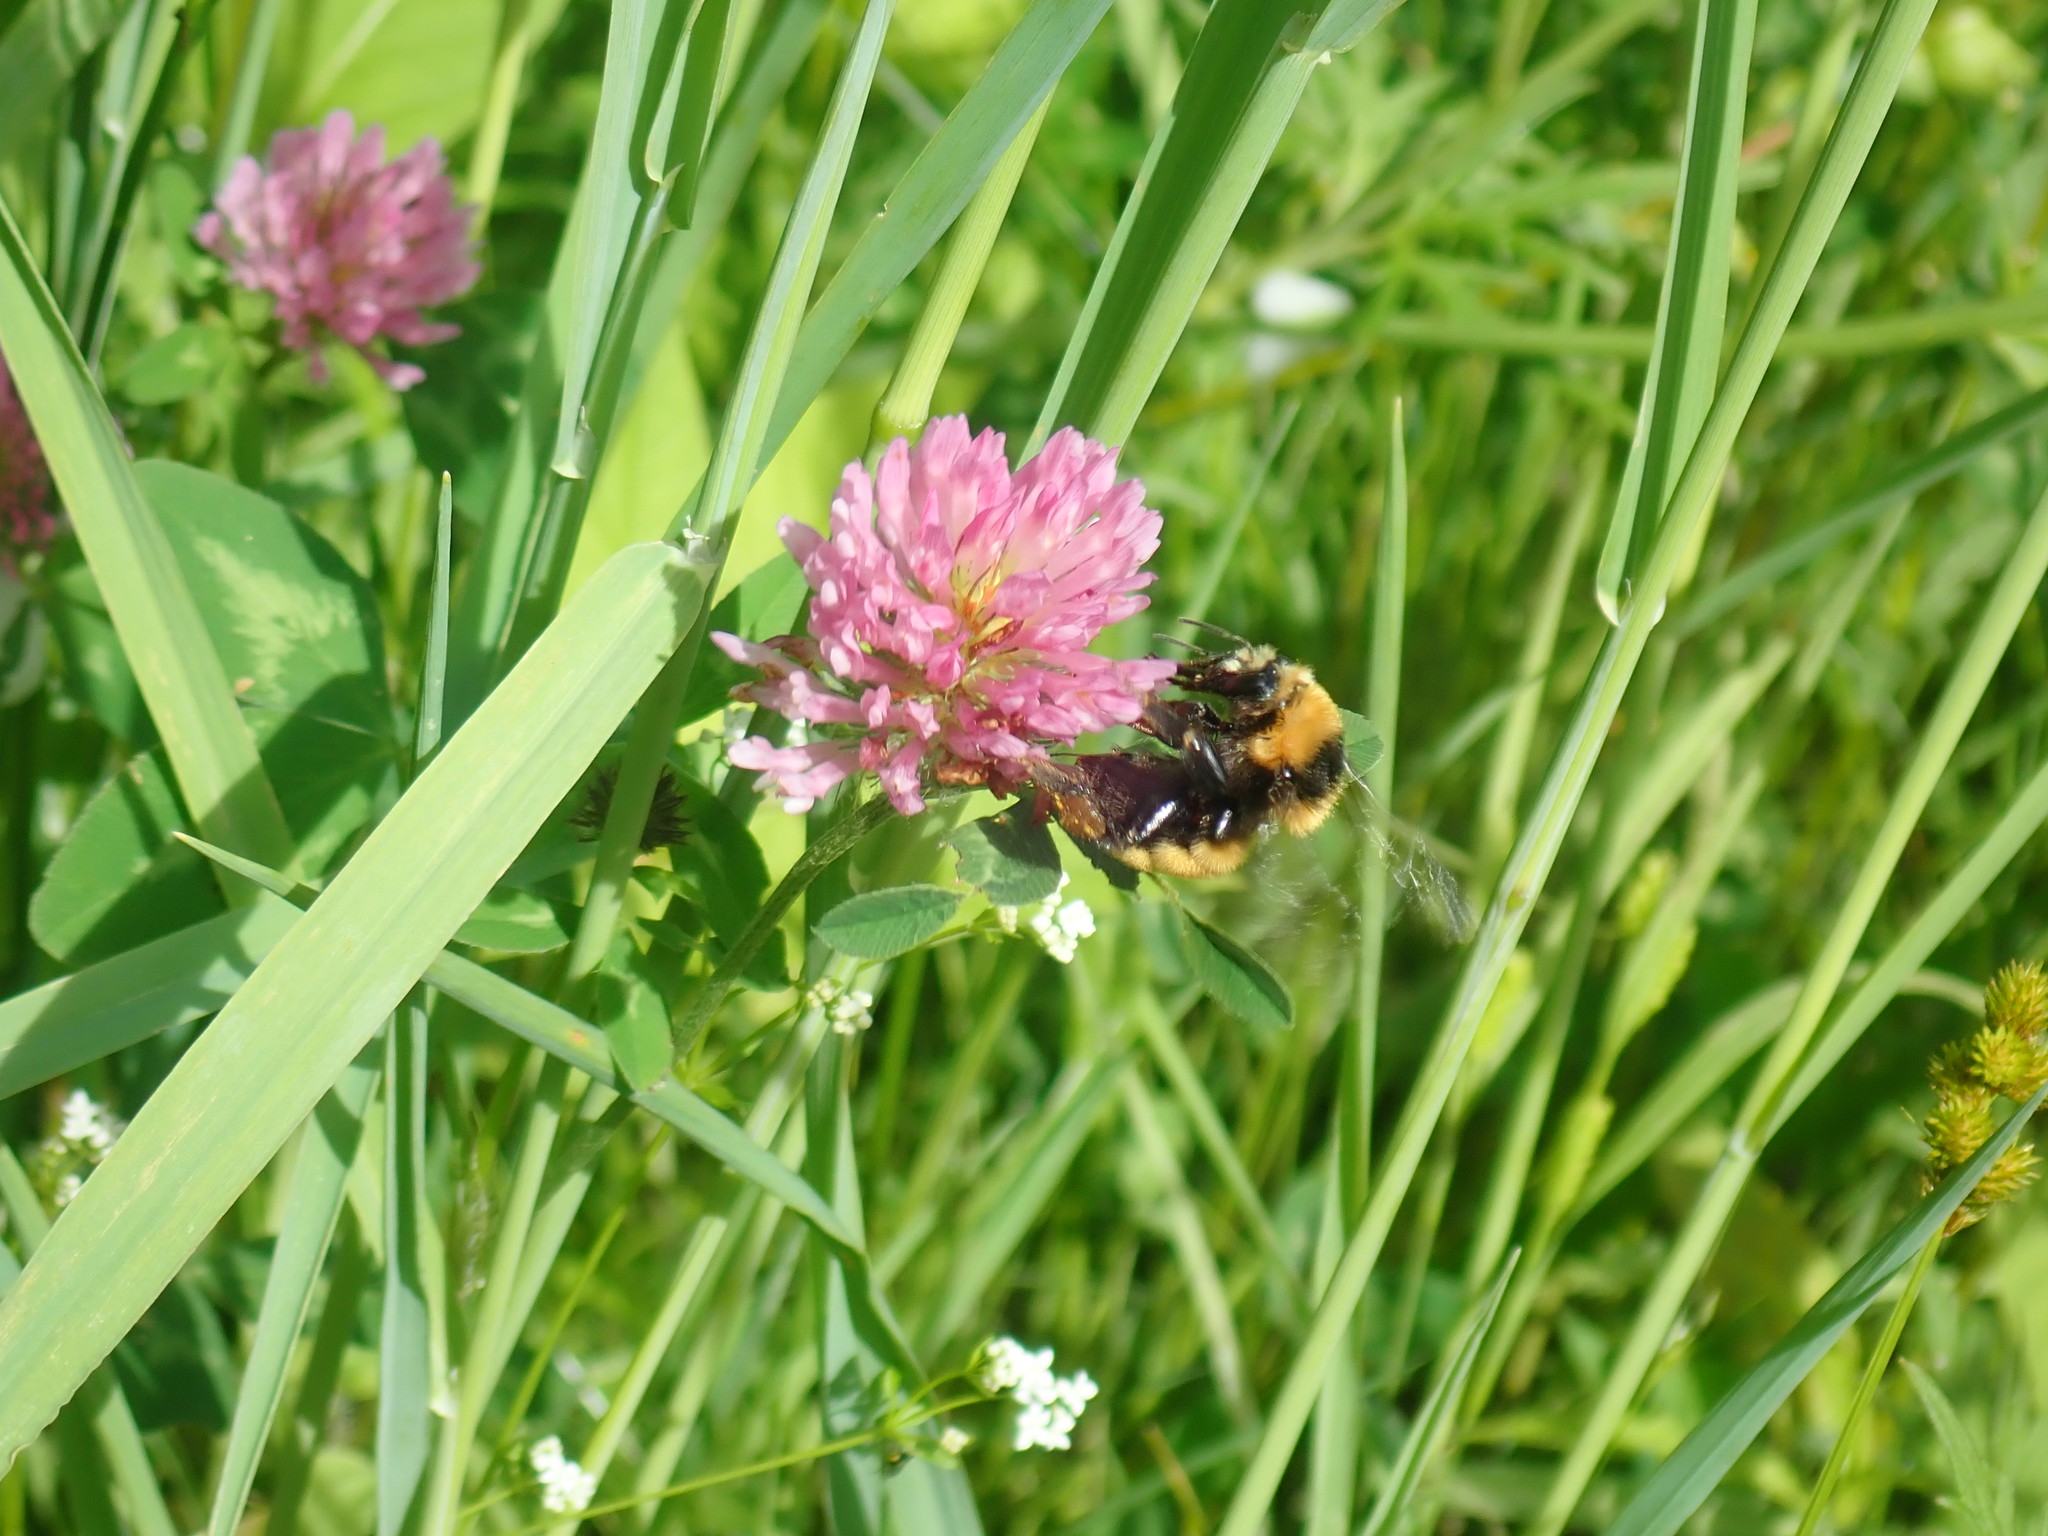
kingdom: Animalia
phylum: Arthropoda
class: Insecta
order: Hymenoptera
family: Apidae
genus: Bombus
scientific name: Bombus borealis
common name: Northern amber bumble bee
